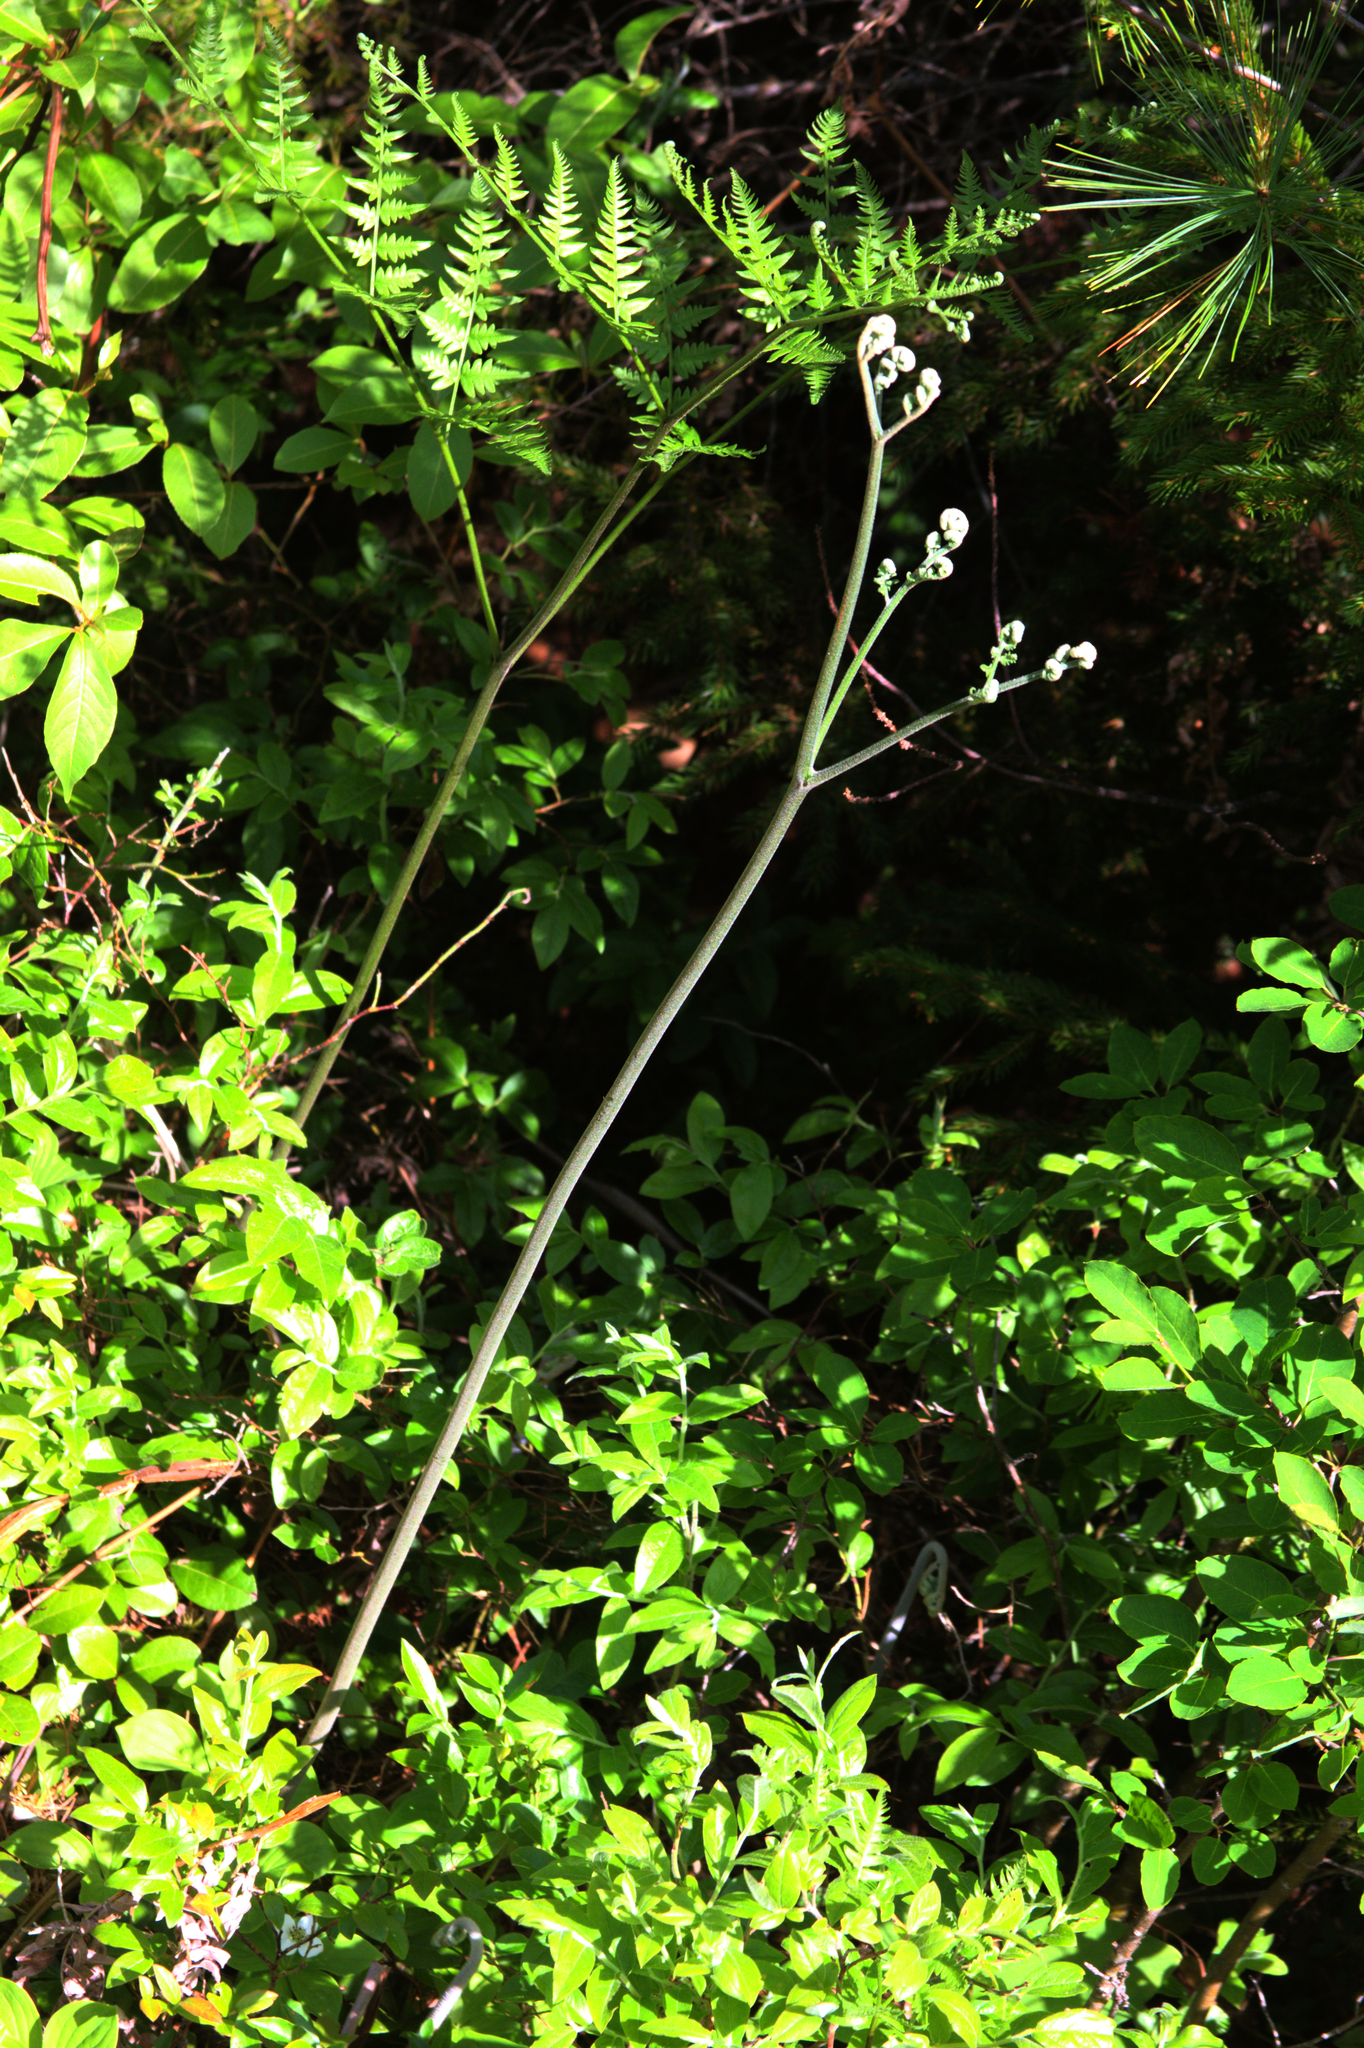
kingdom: Plantae
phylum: Tracheophyta
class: Polypodiopsida
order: Polypodiales
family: Dennstaedtiaceae
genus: Pteridium
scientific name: Pteridium aquilinum
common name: Bracken
